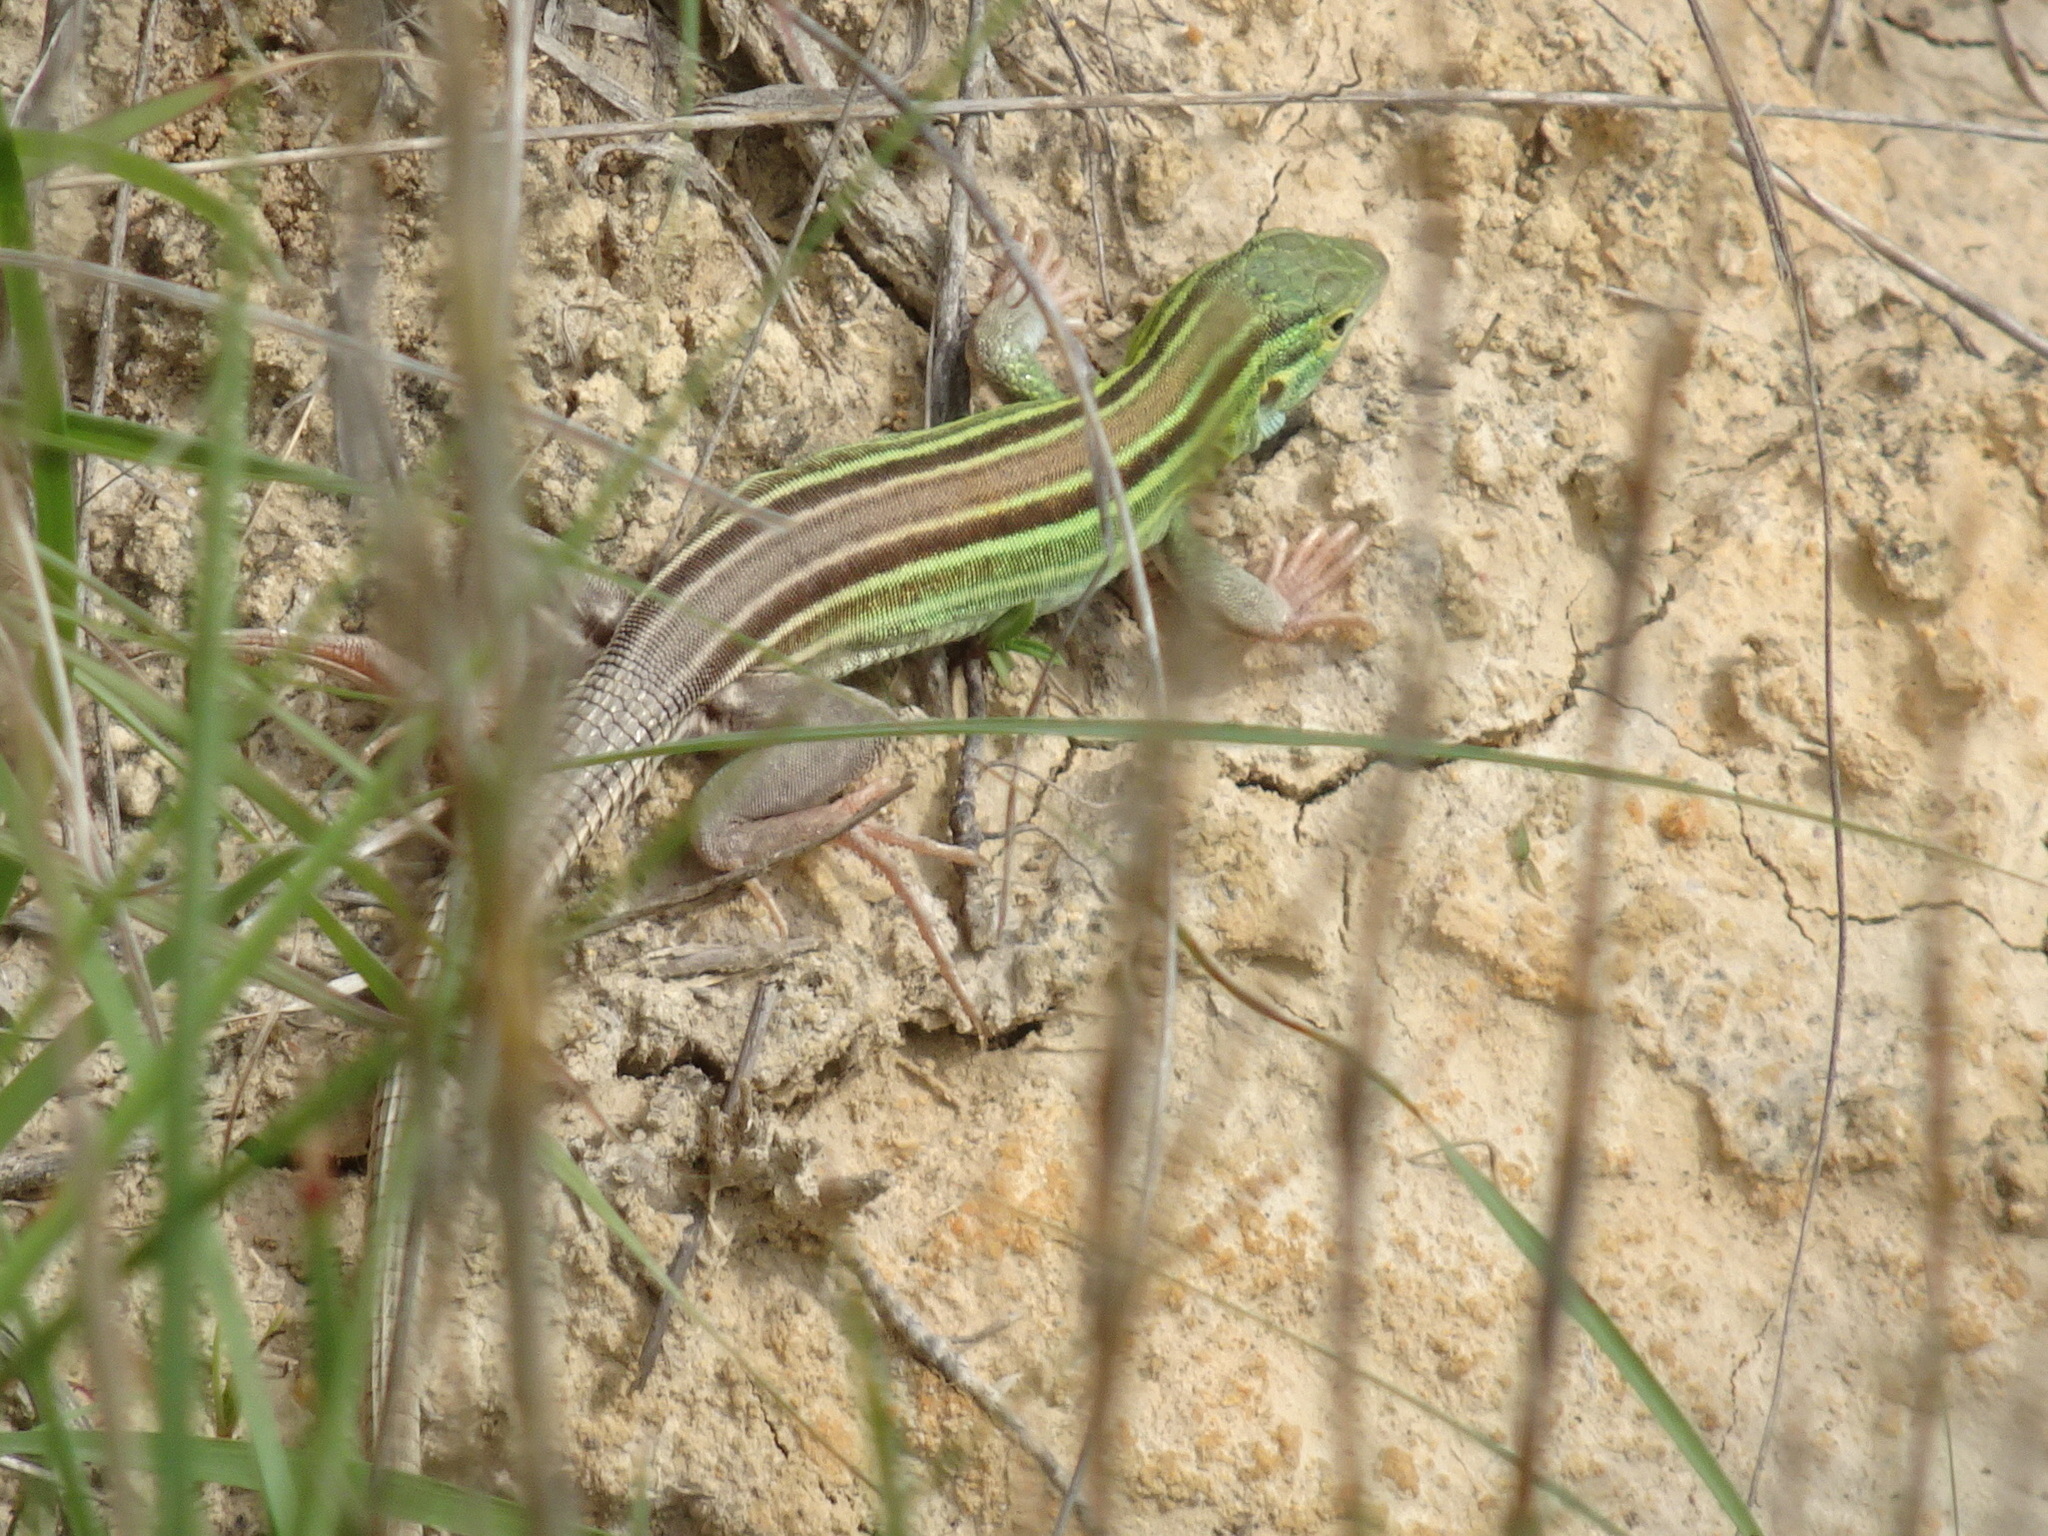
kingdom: Animalia
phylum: Chordata
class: Squamata
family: Teiidae
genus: Aspidoscelis
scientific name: Aspidoscelis sexlineatus
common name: Six-lined racerunner
